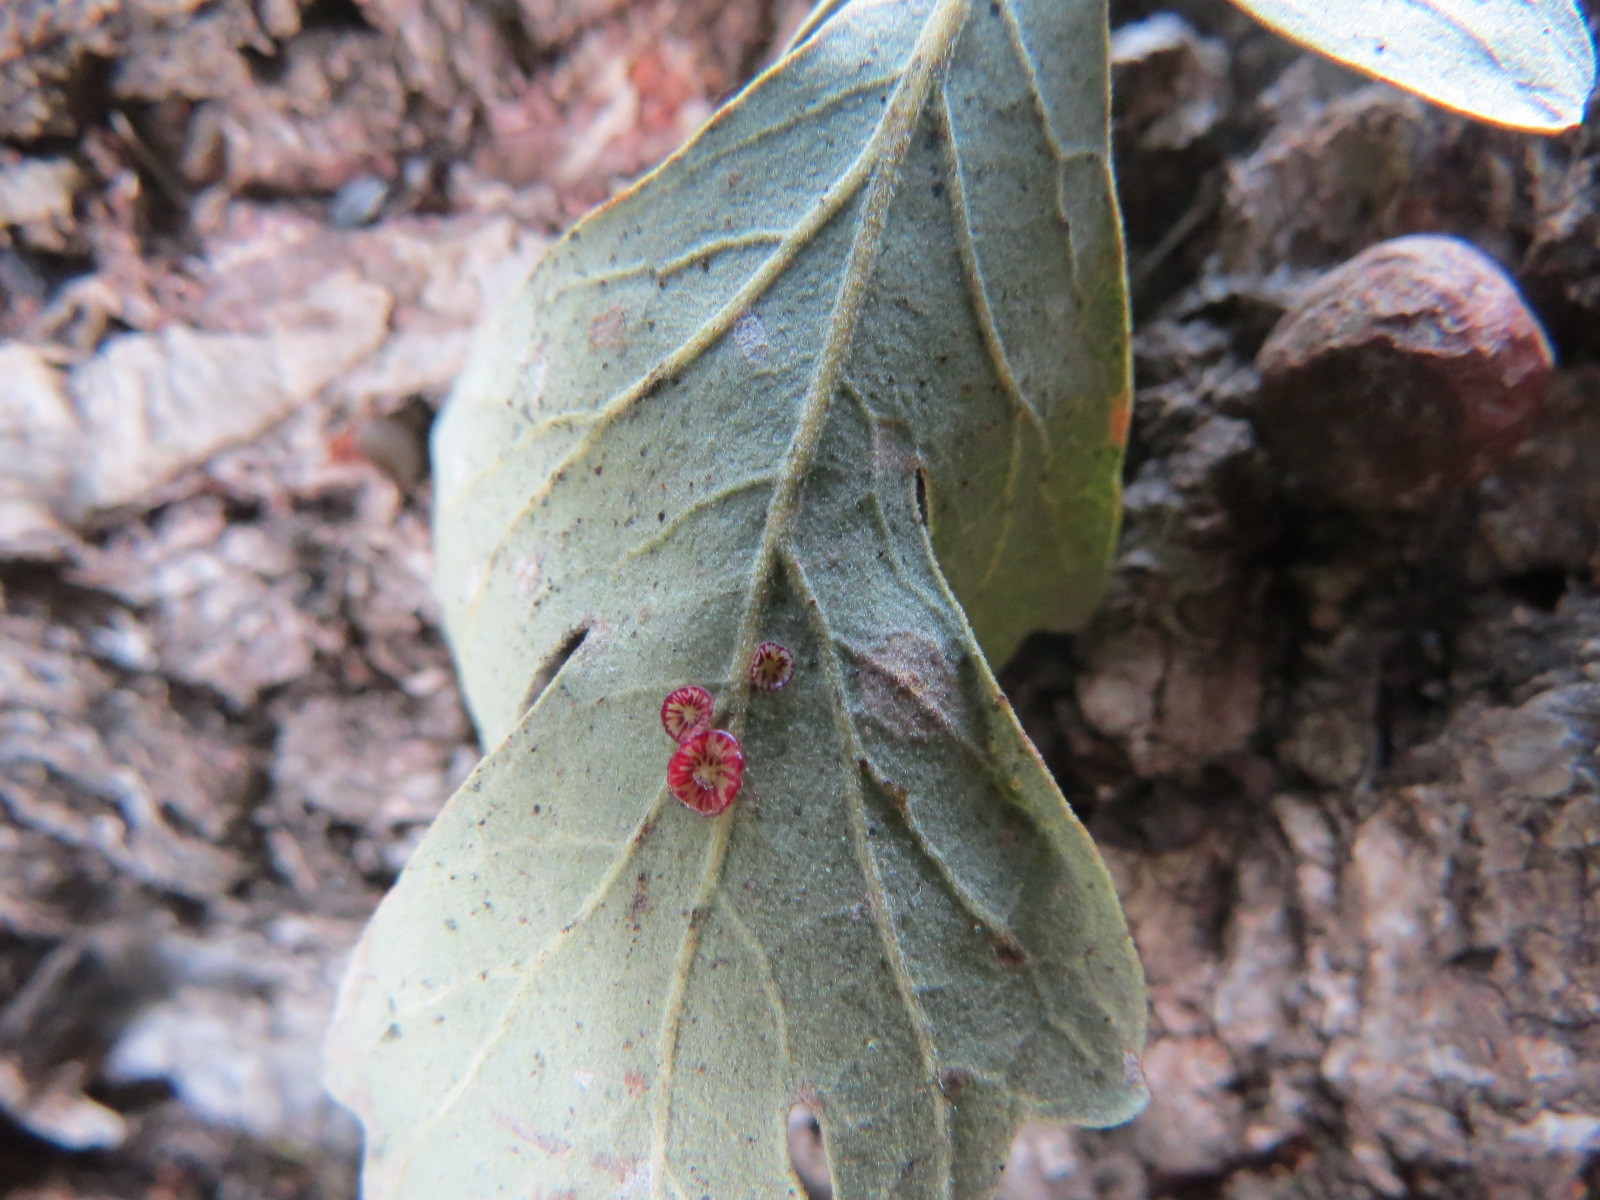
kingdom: Animalia
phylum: Arthropoda
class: Insecta
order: Hymenoptera
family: Cynipidae
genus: Andricus
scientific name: Andricus
